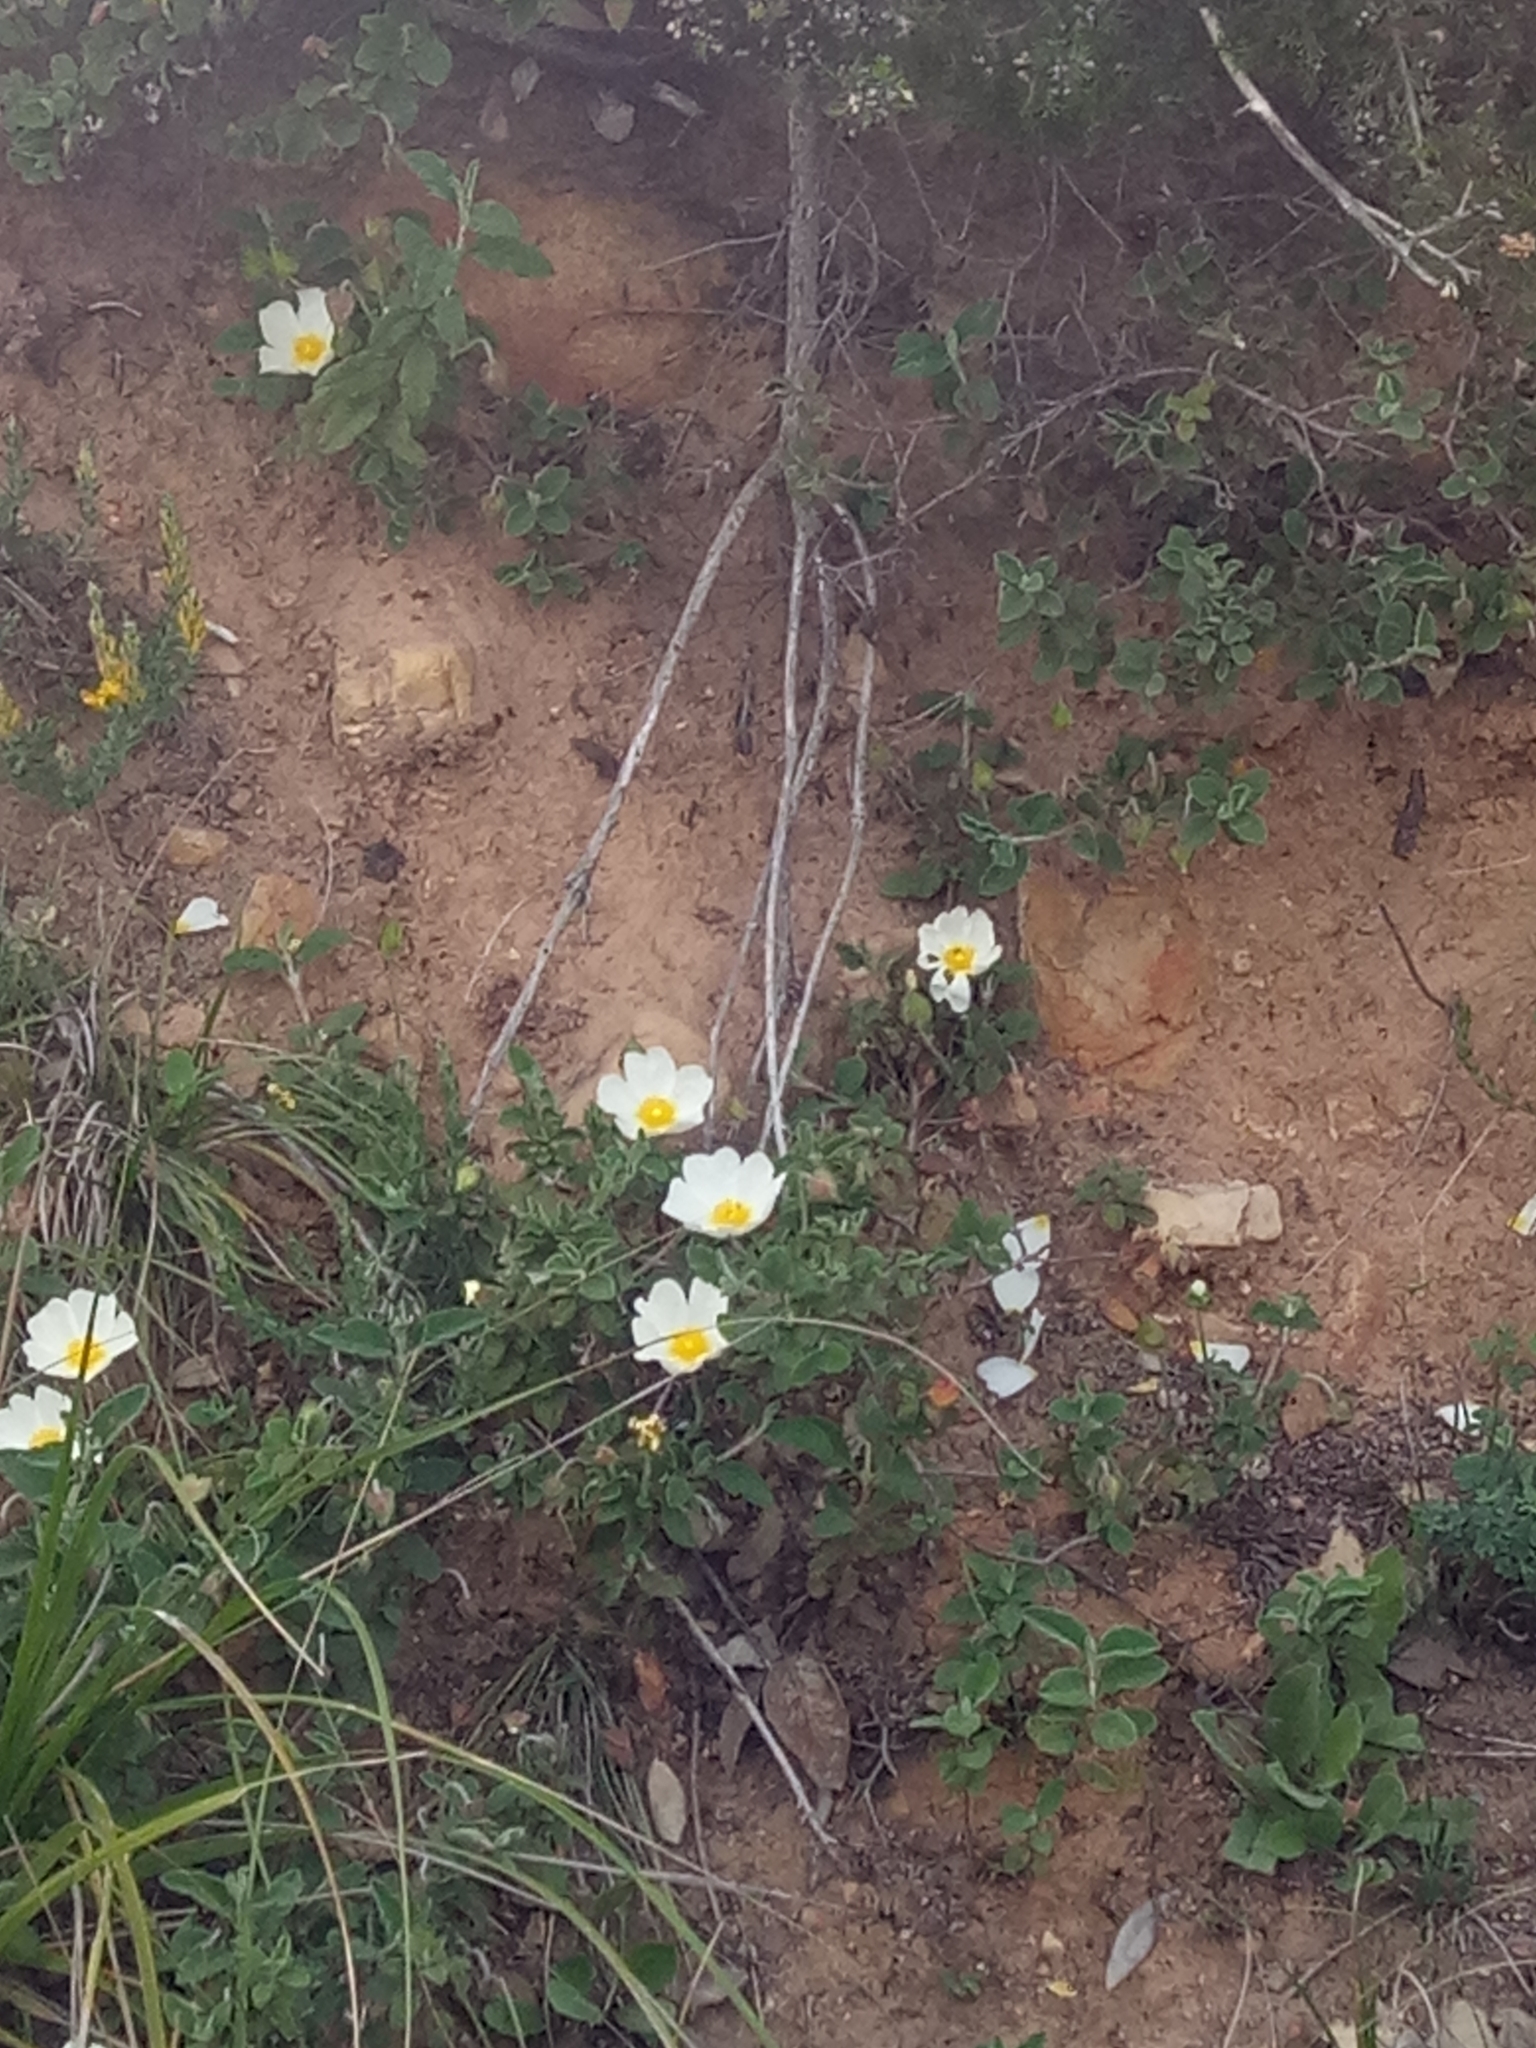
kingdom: Plantae
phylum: Tracheophyta
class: Magnoliopsida
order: Malvales
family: Cistaceae
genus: Cistus
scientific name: Cistus salviifolius
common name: Salvia cistus
